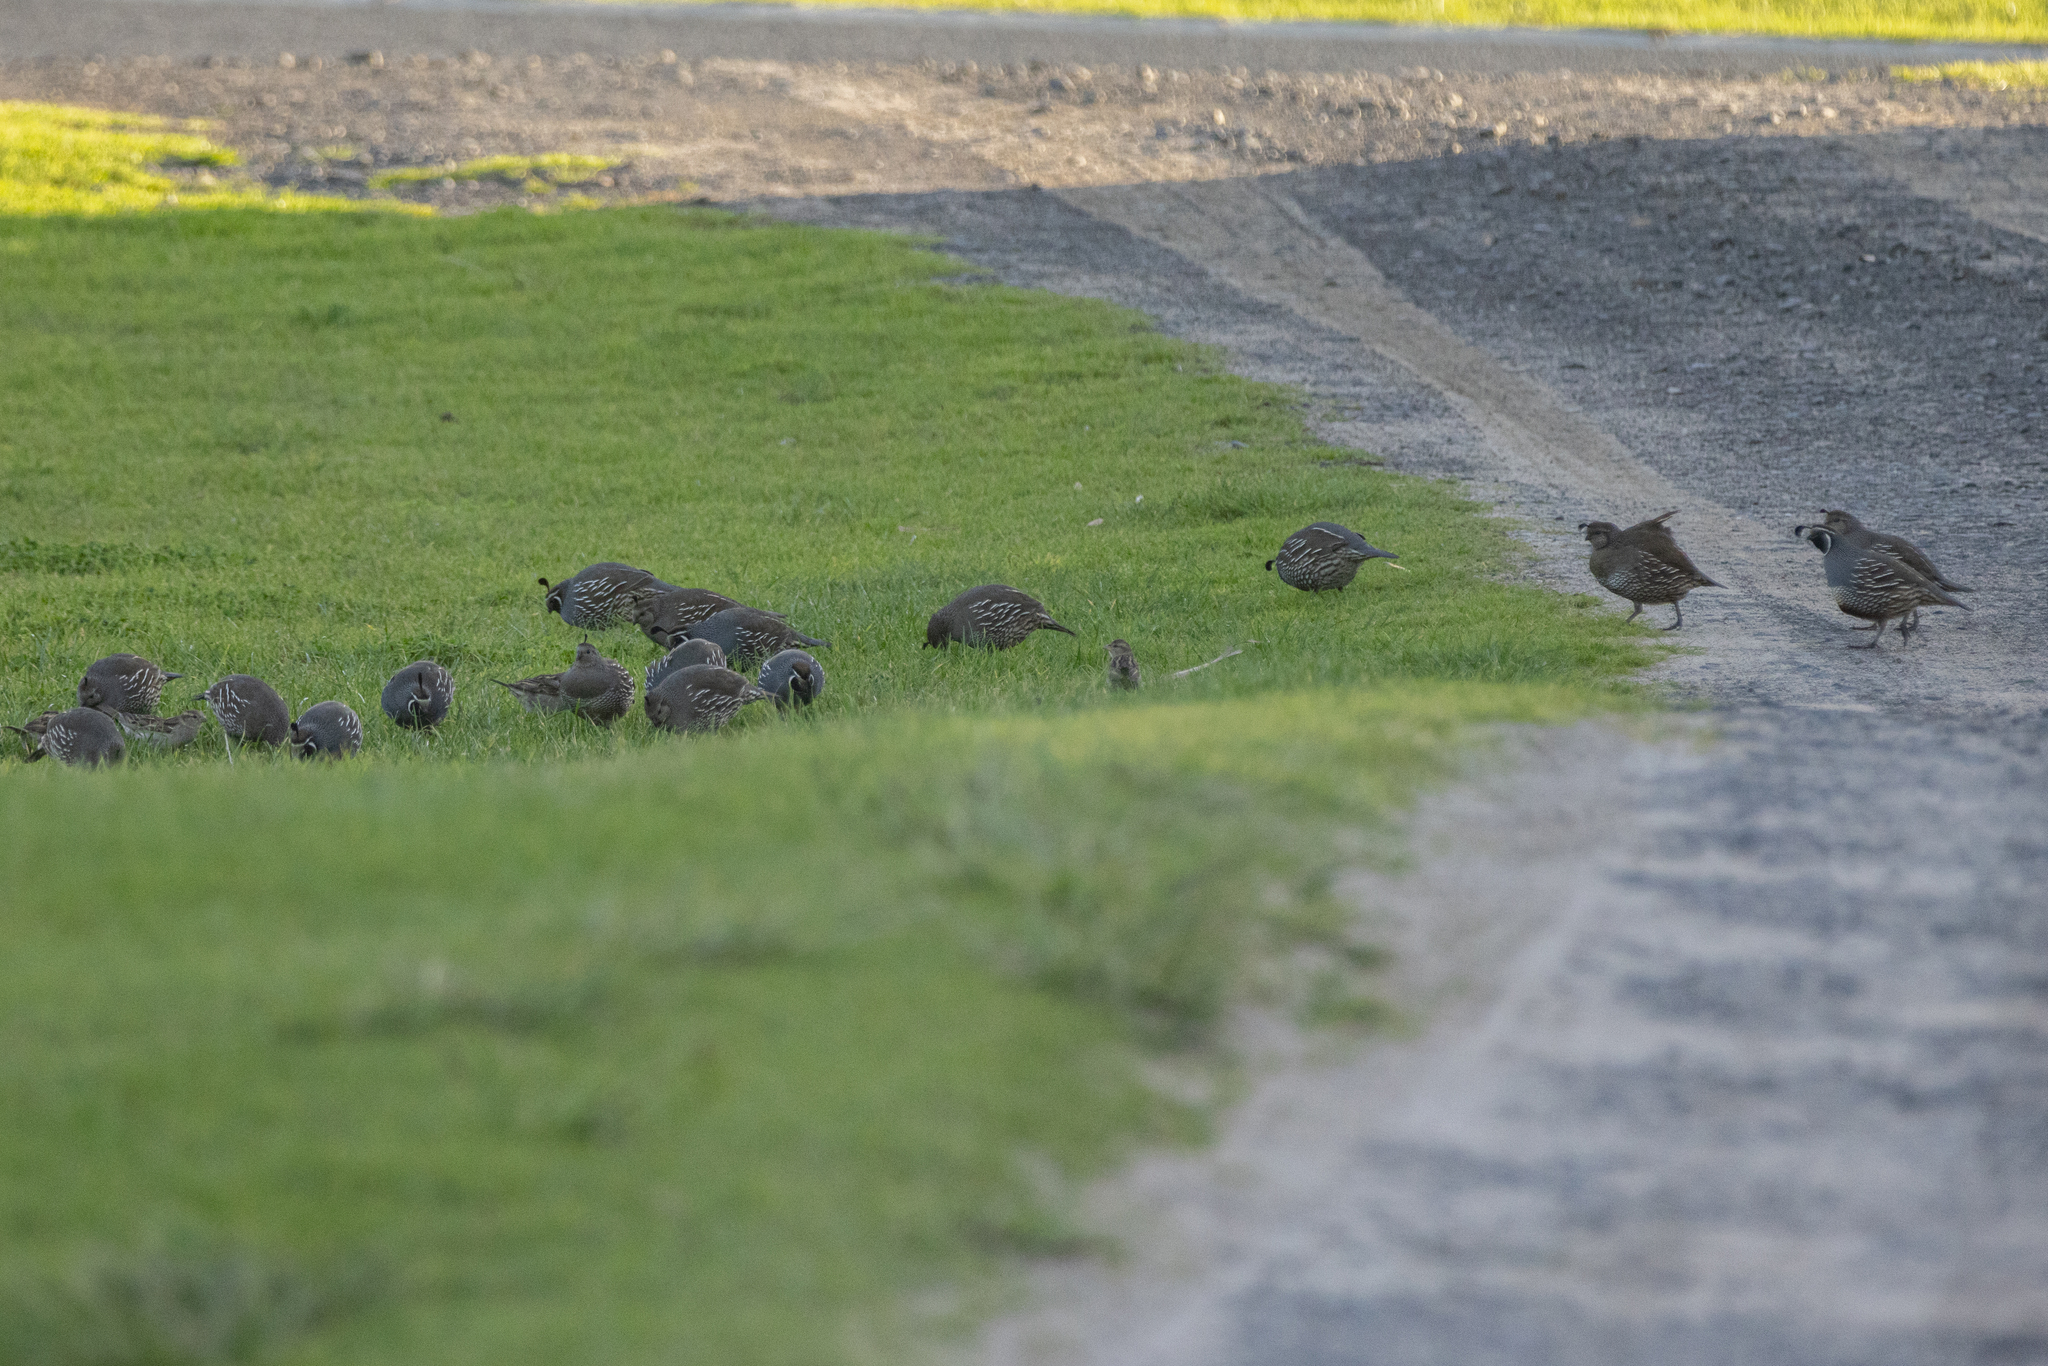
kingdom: Animalia
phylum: Chordata
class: Aves
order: Galliformes
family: Odontophoridae
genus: Callipepla
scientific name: Callipepla californica
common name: California quail
